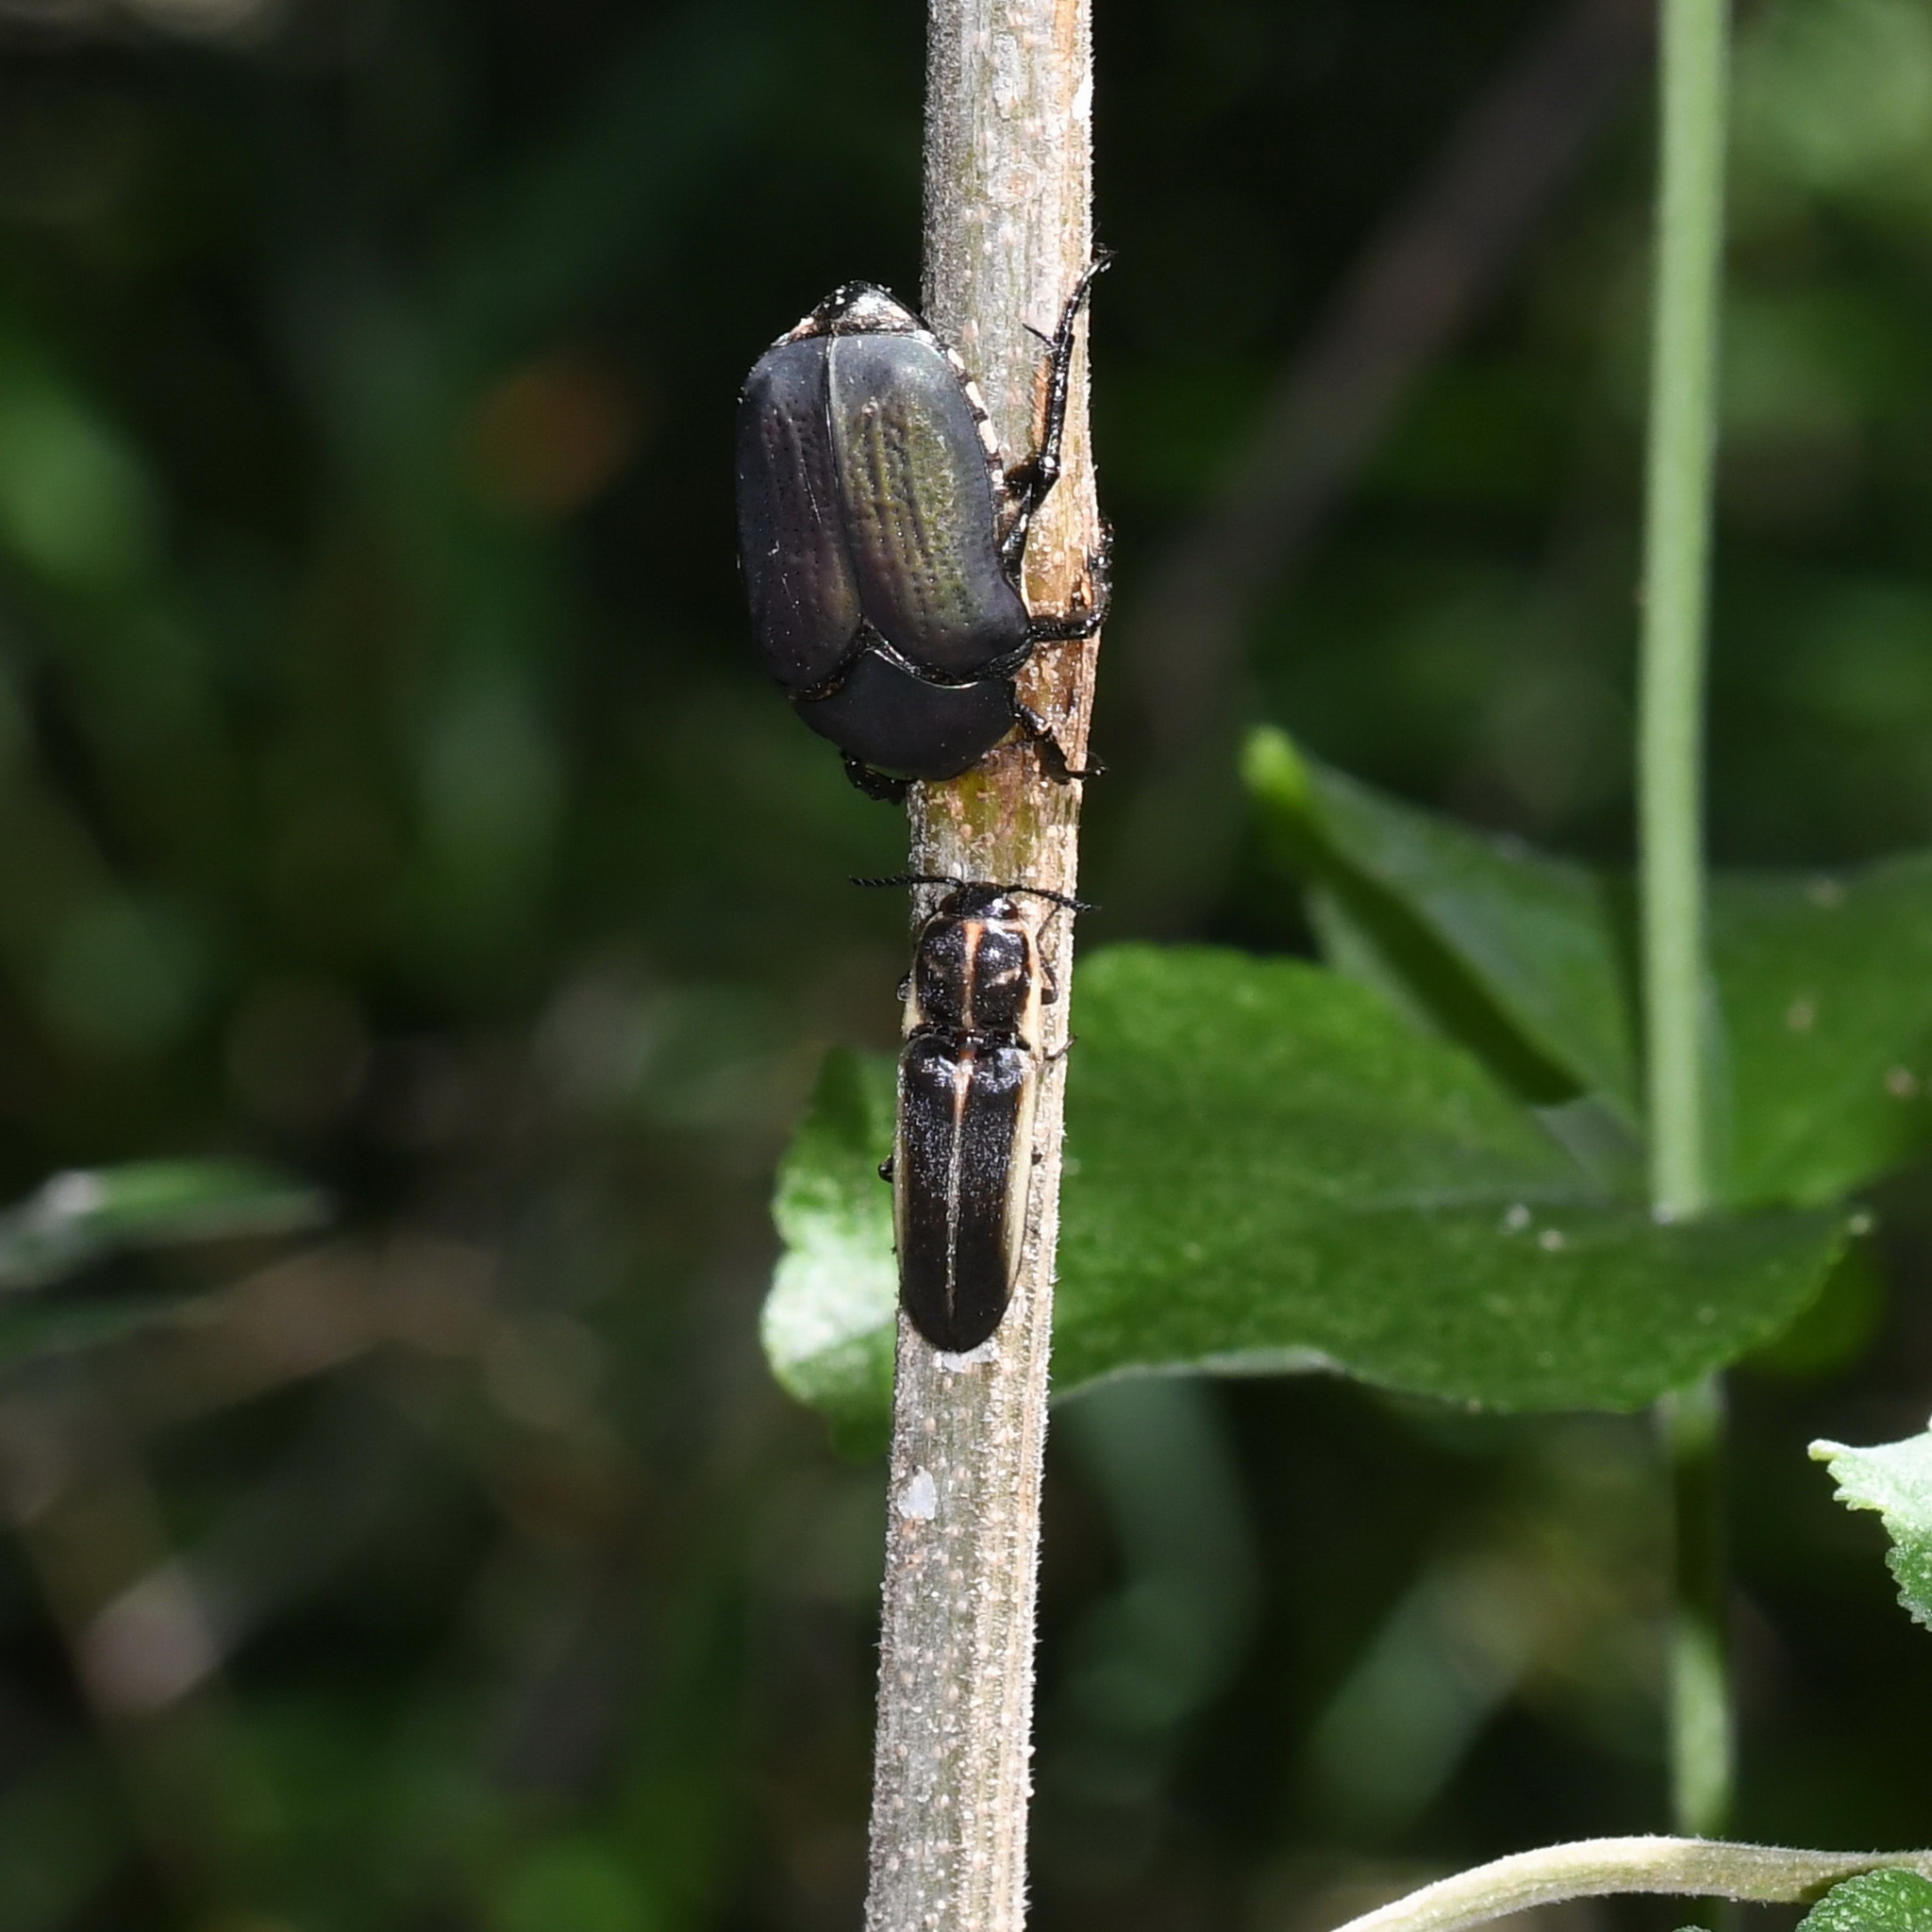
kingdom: Animalia
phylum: Arthropoda
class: Insecta
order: Coleoptera
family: Scarabaeidae
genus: Allorrhina
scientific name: Allorrhina menetriesi
